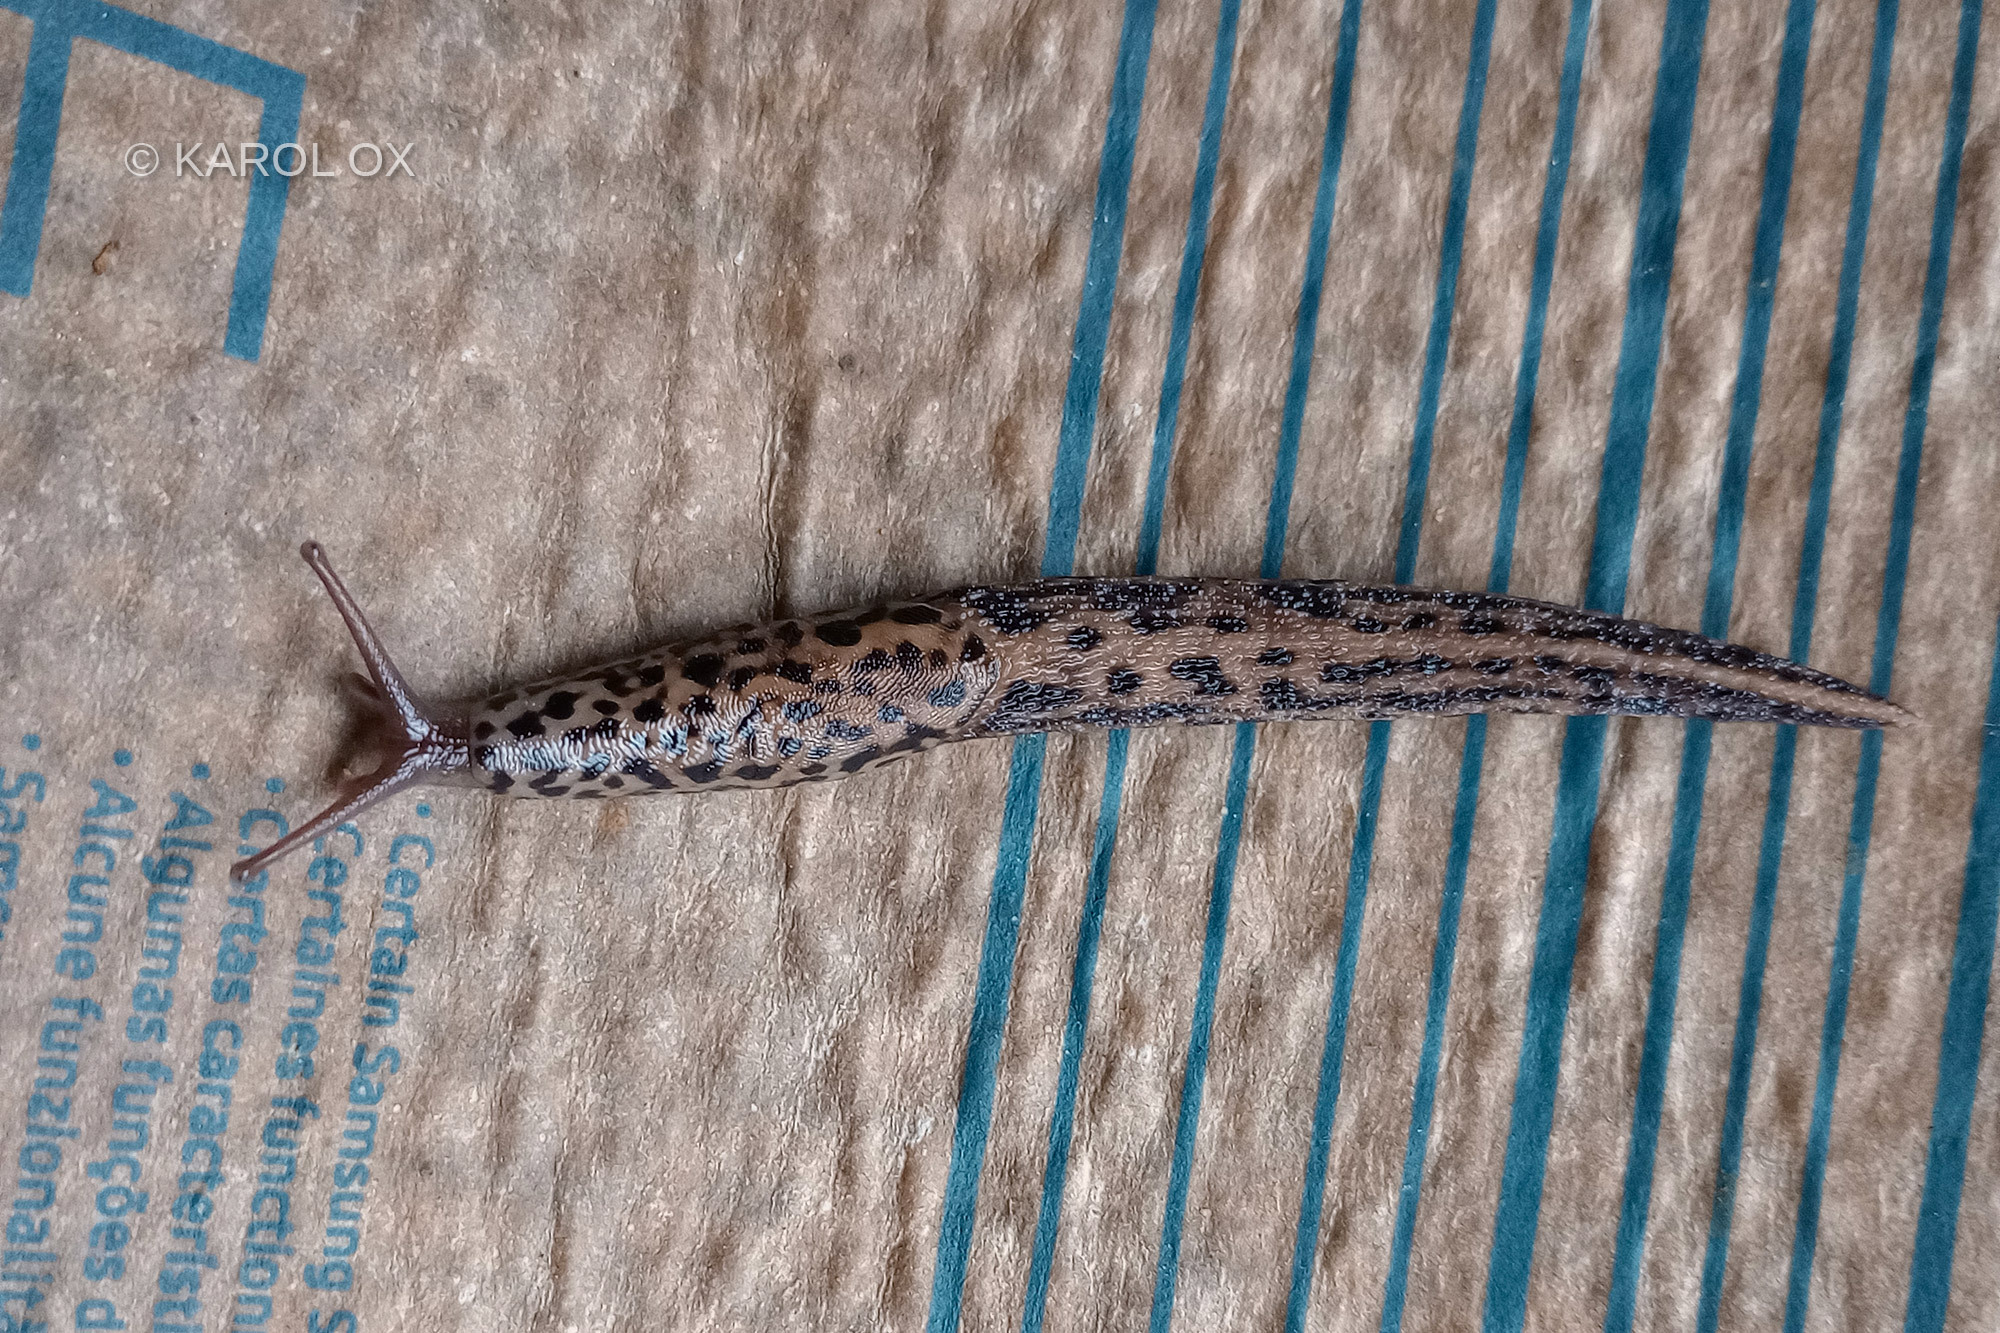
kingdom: Animalia
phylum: Mollusca
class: Gastropoda
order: Stylommatophora
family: Limacidae
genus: Limax
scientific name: Limax maximus
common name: Great grey slug
